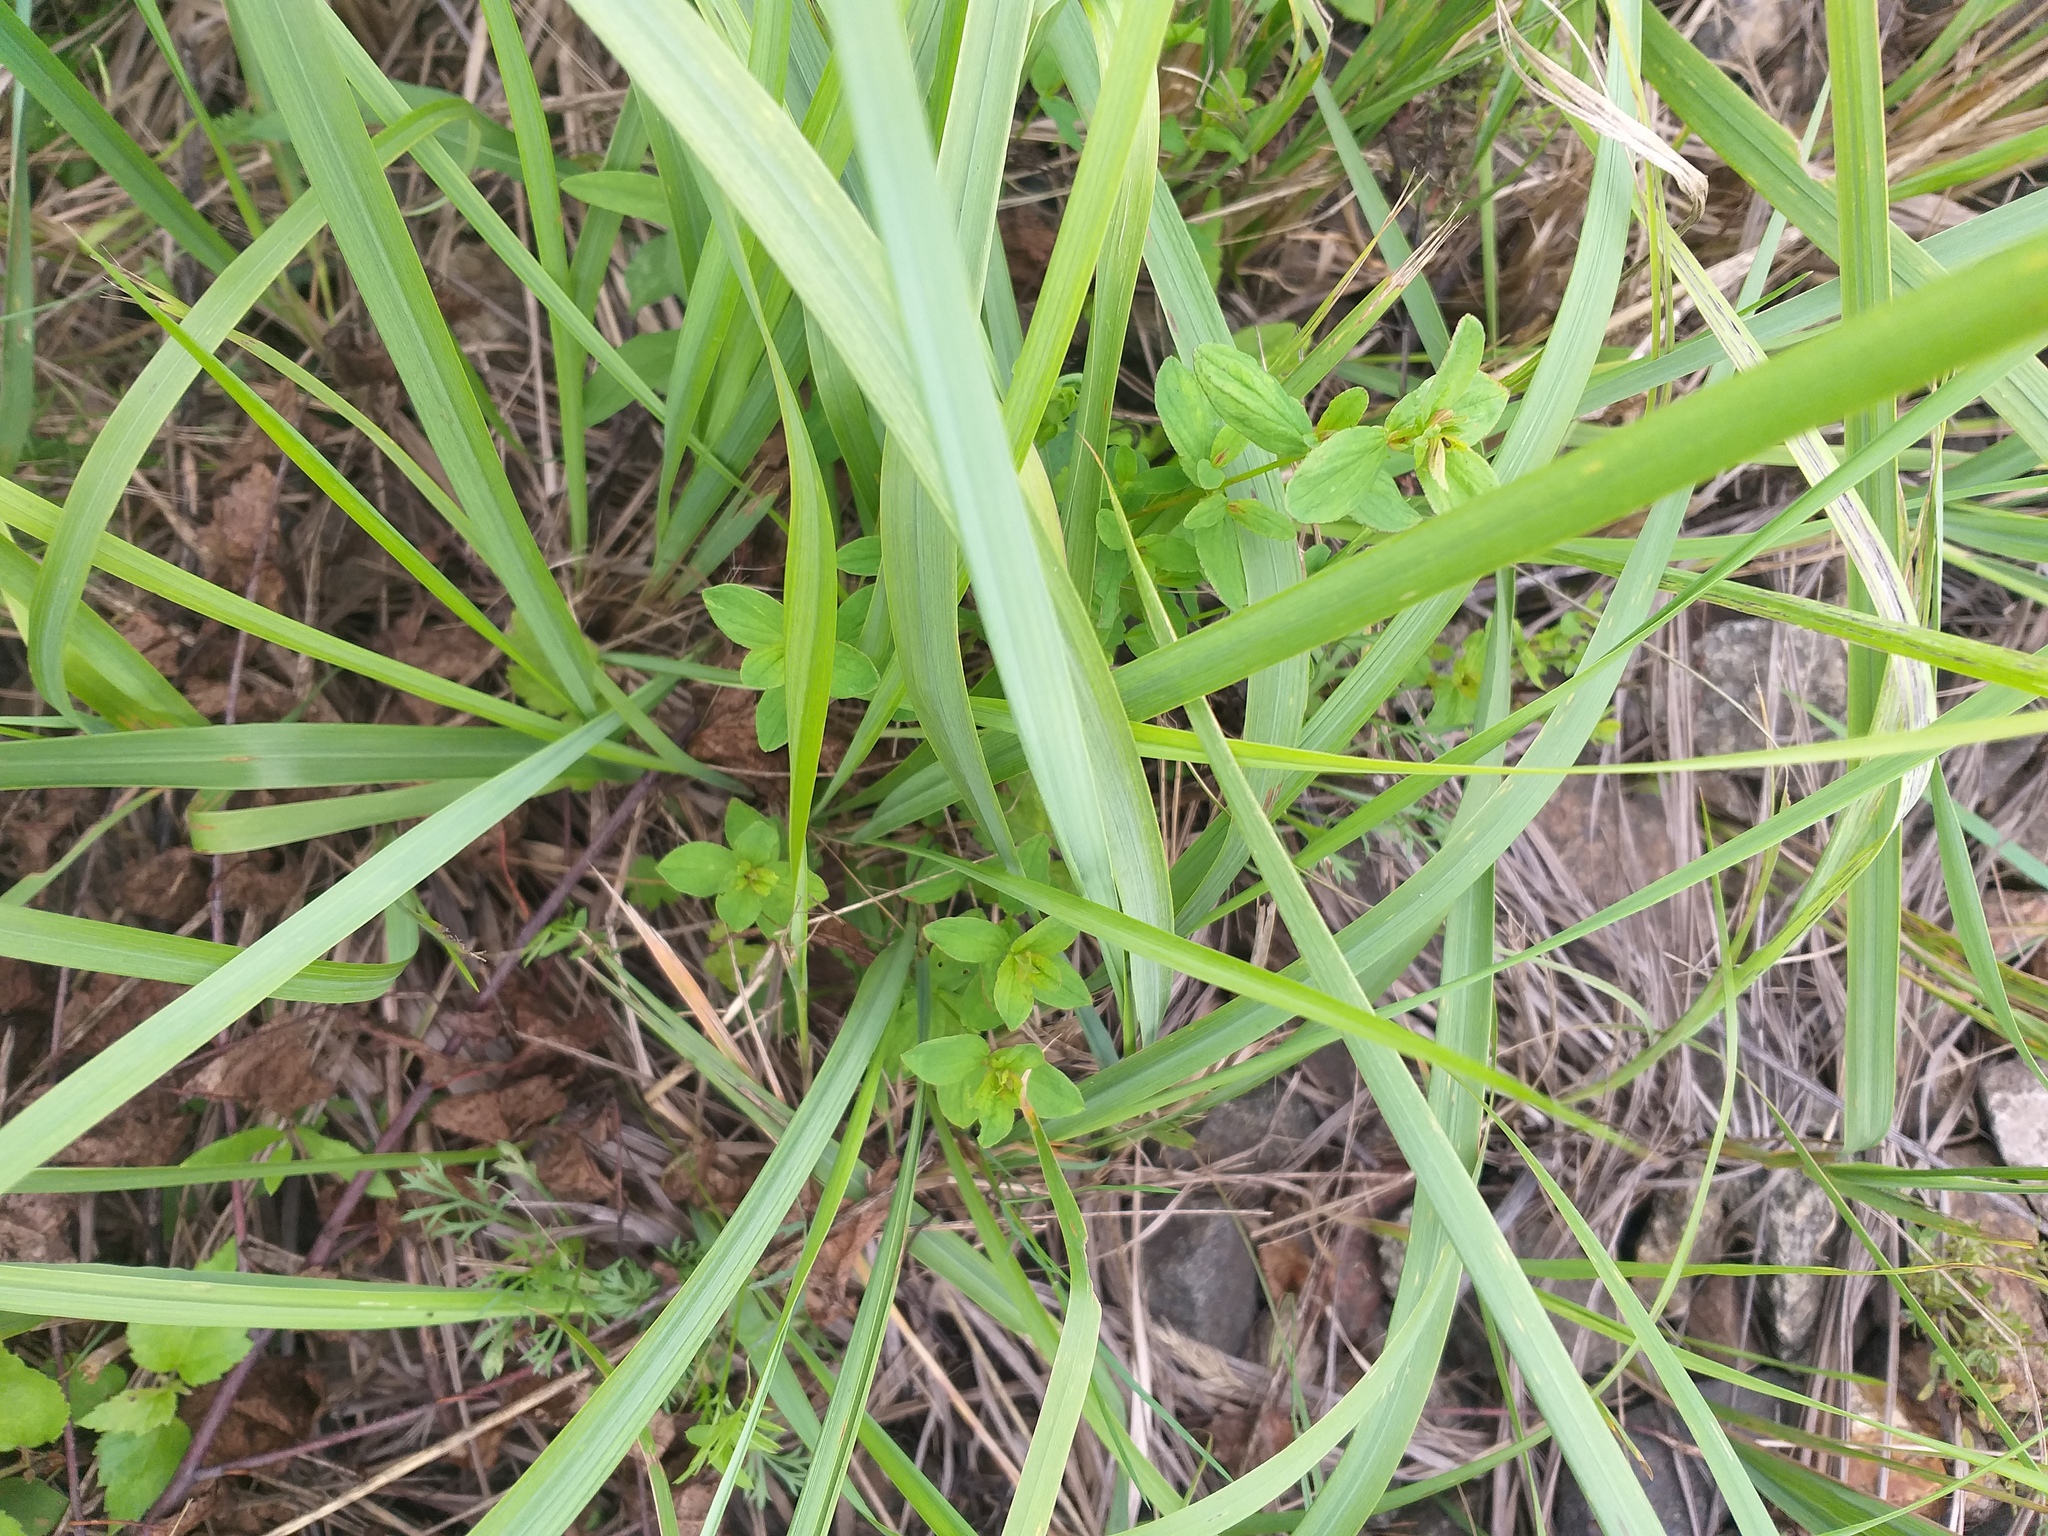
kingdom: Plantae
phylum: Tracheophyta
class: Magnoliopsida
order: Malpighiales
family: Hypericaceae
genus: Hypericum
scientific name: Hypericum maculatum
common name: Imperforate st. john's-wort
